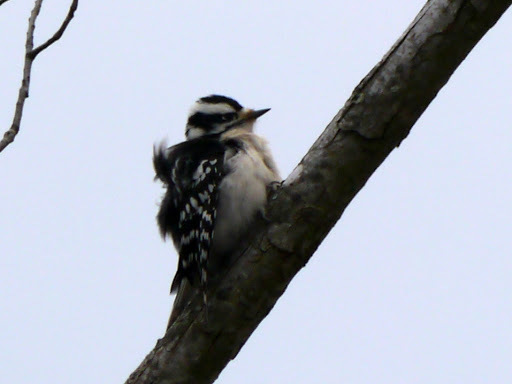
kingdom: Animalia
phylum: Chordata
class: Aves
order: Piciformes
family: Picidae
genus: Dryobates
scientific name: Dryobates pubescens
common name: Downy woodpecker
